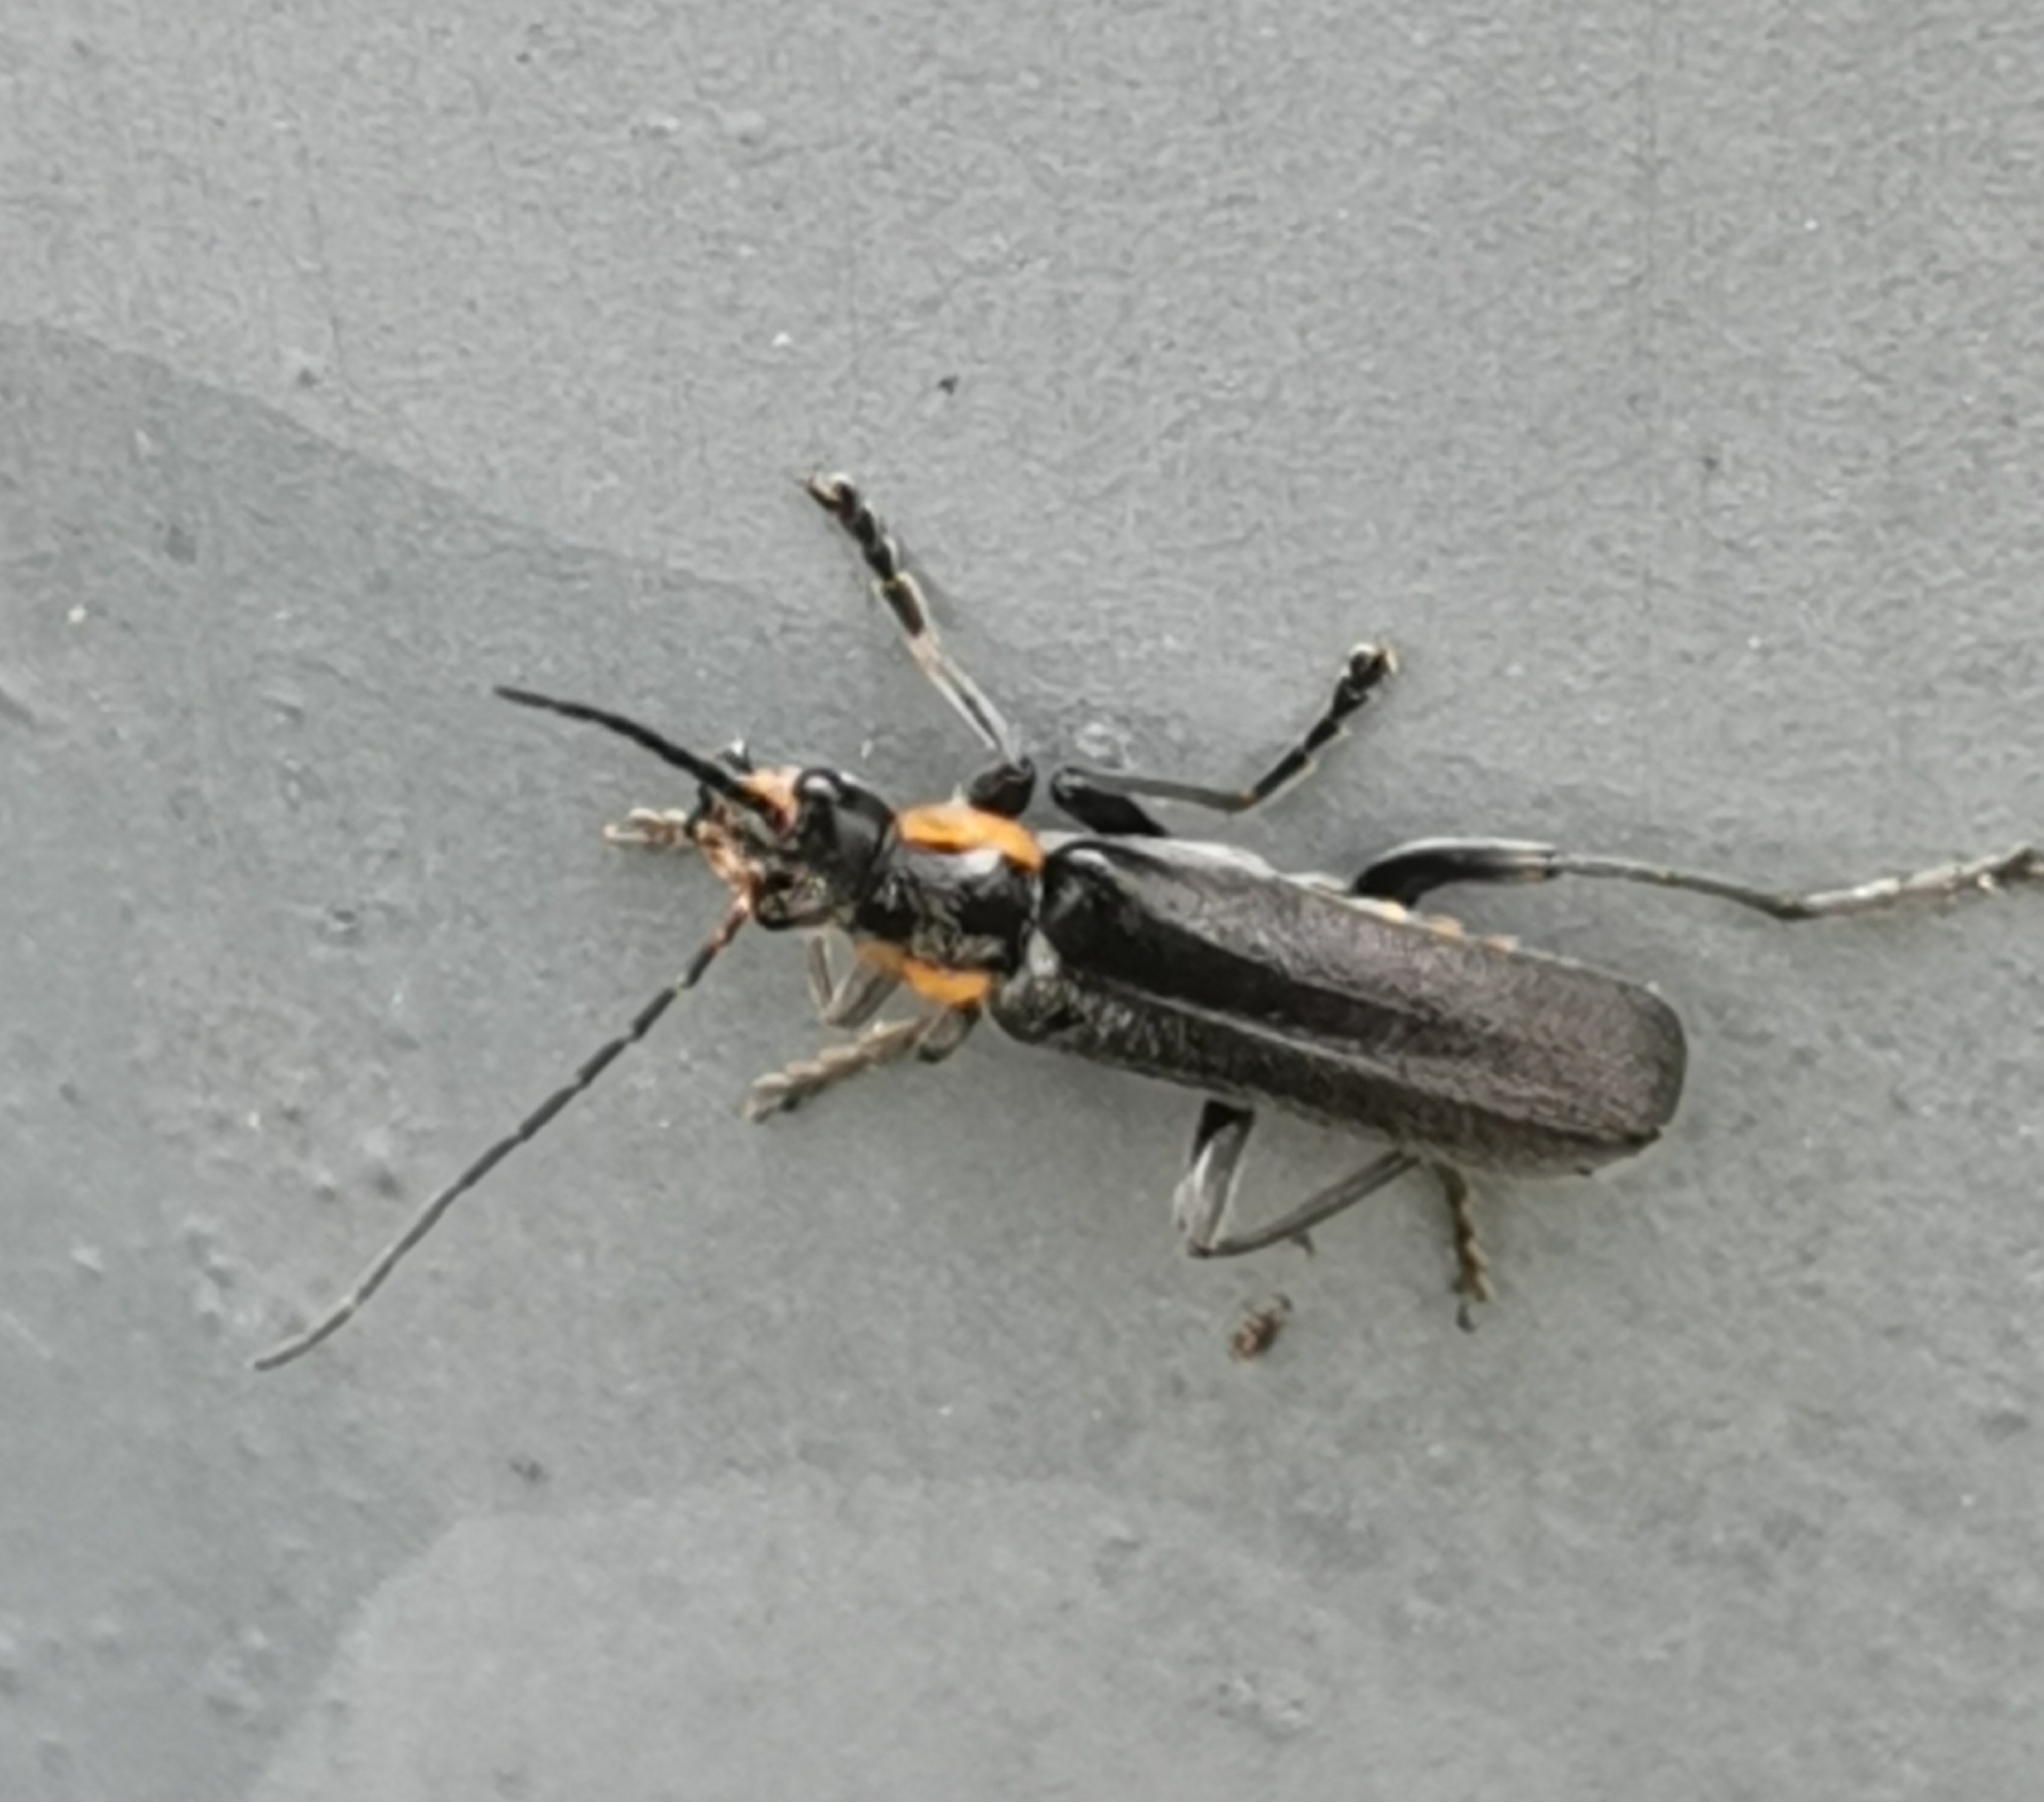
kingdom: Animalia
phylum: Arthropoda
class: Insecta
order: Coleoptera
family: Cantharidae
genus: Cantharis
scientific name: Cantharis obscura
